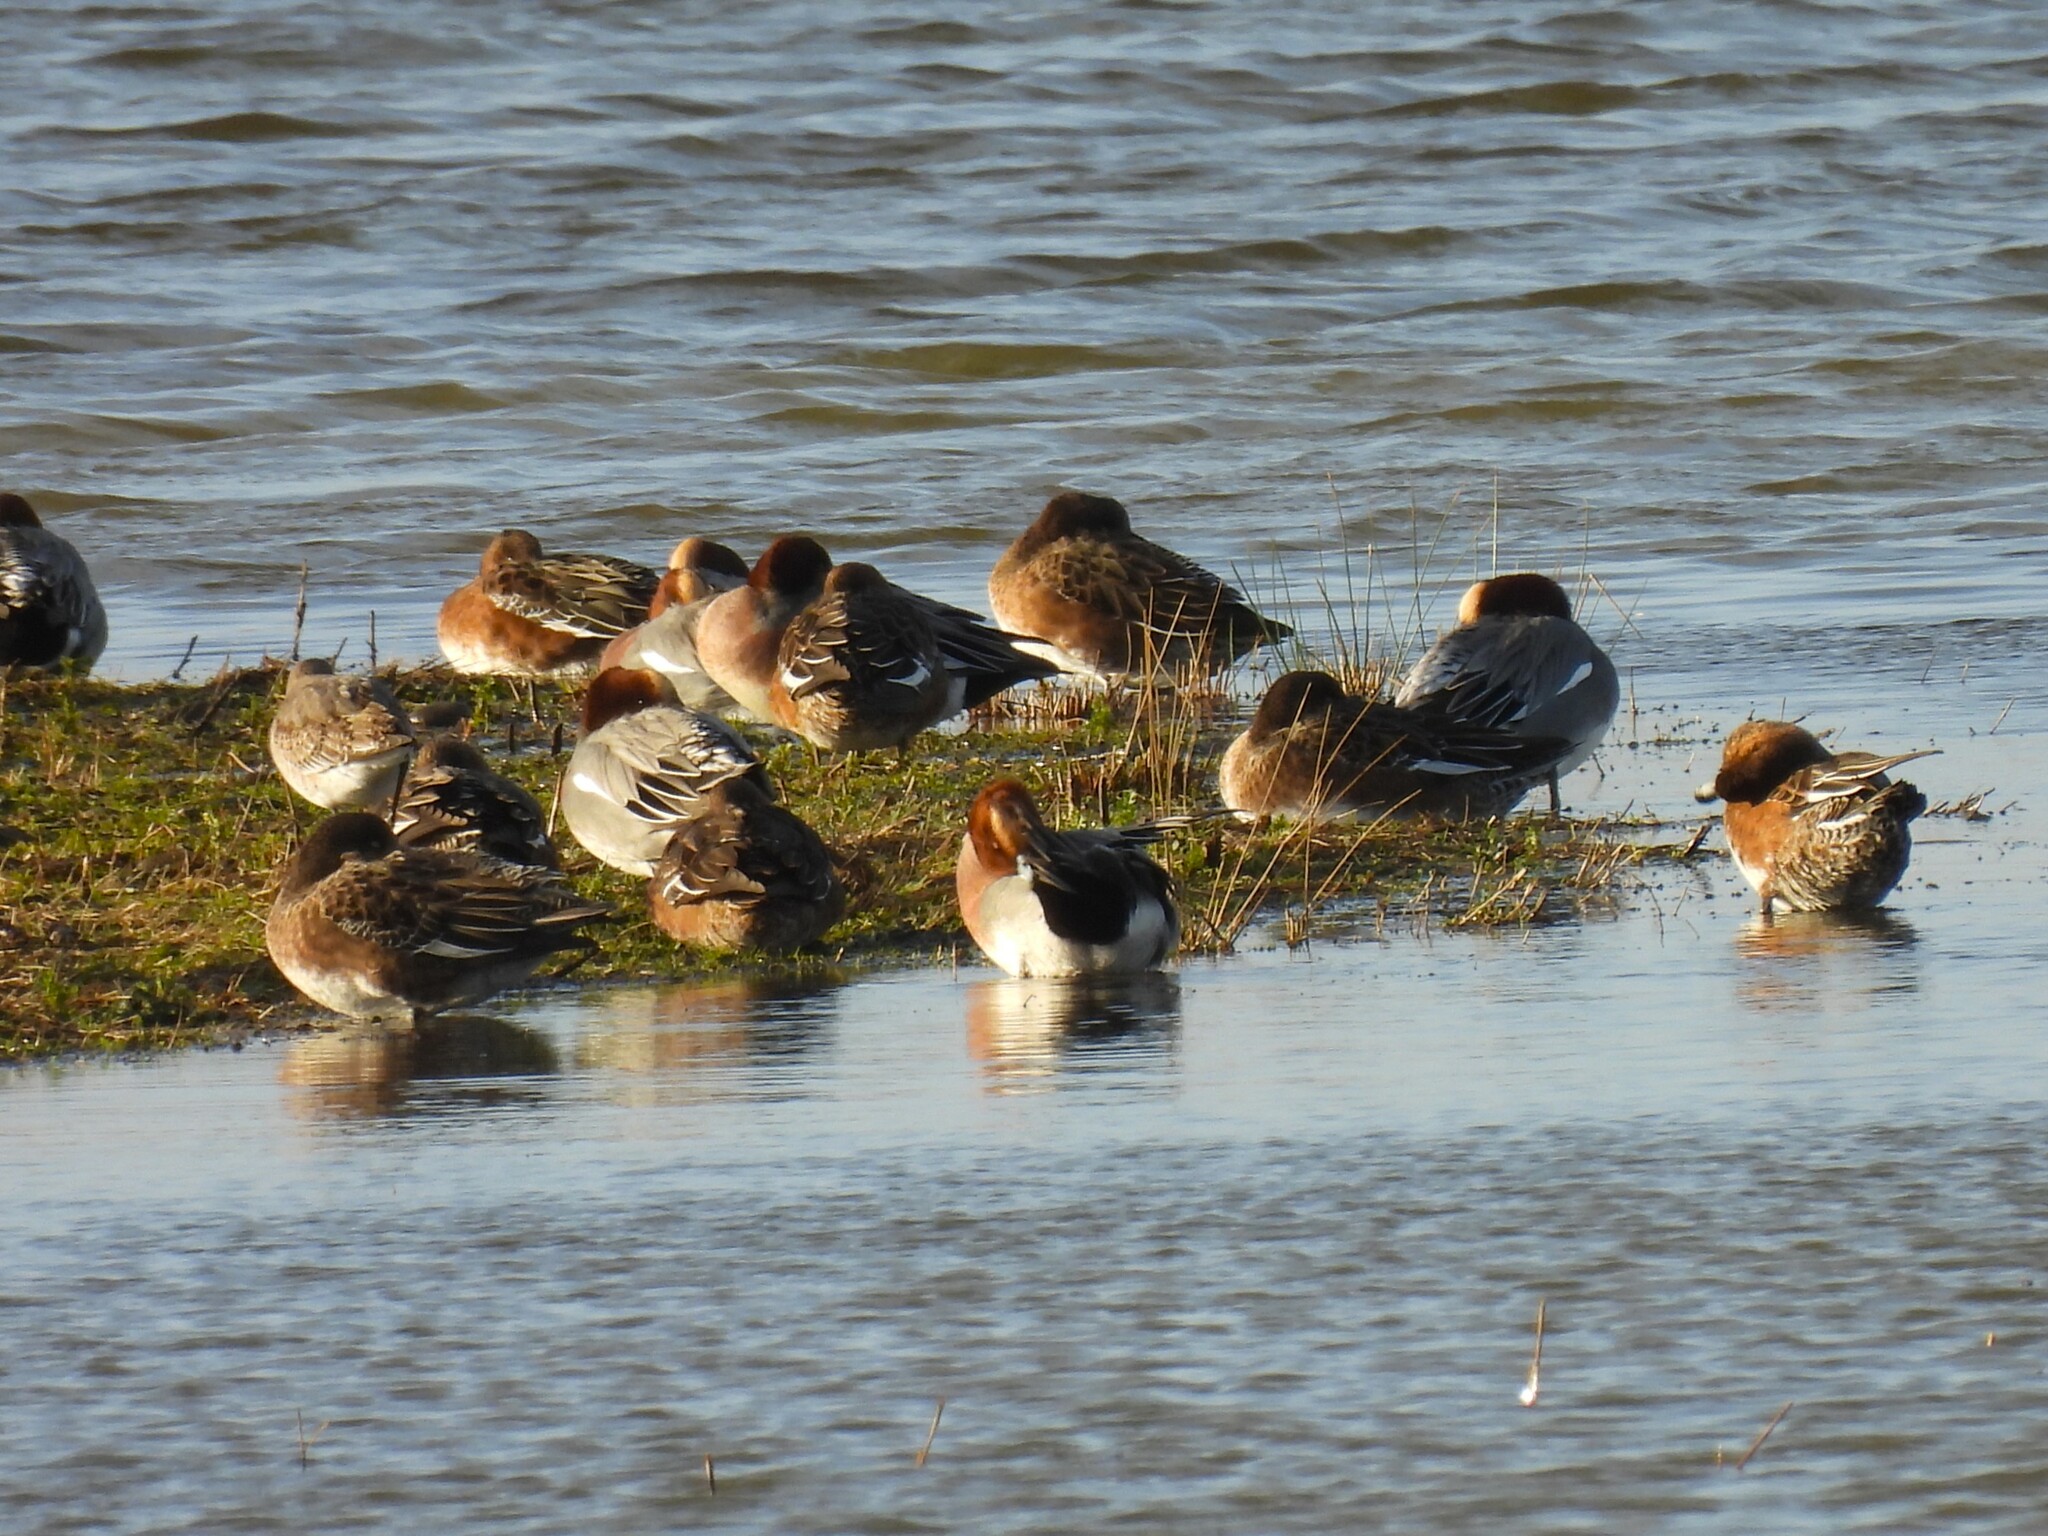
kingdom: Animalia
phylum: Chordata
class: Aves
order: Anseriformes
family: Anatidae
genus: Mareca
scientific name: Mareca penelope
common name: Eurasian wigeon
